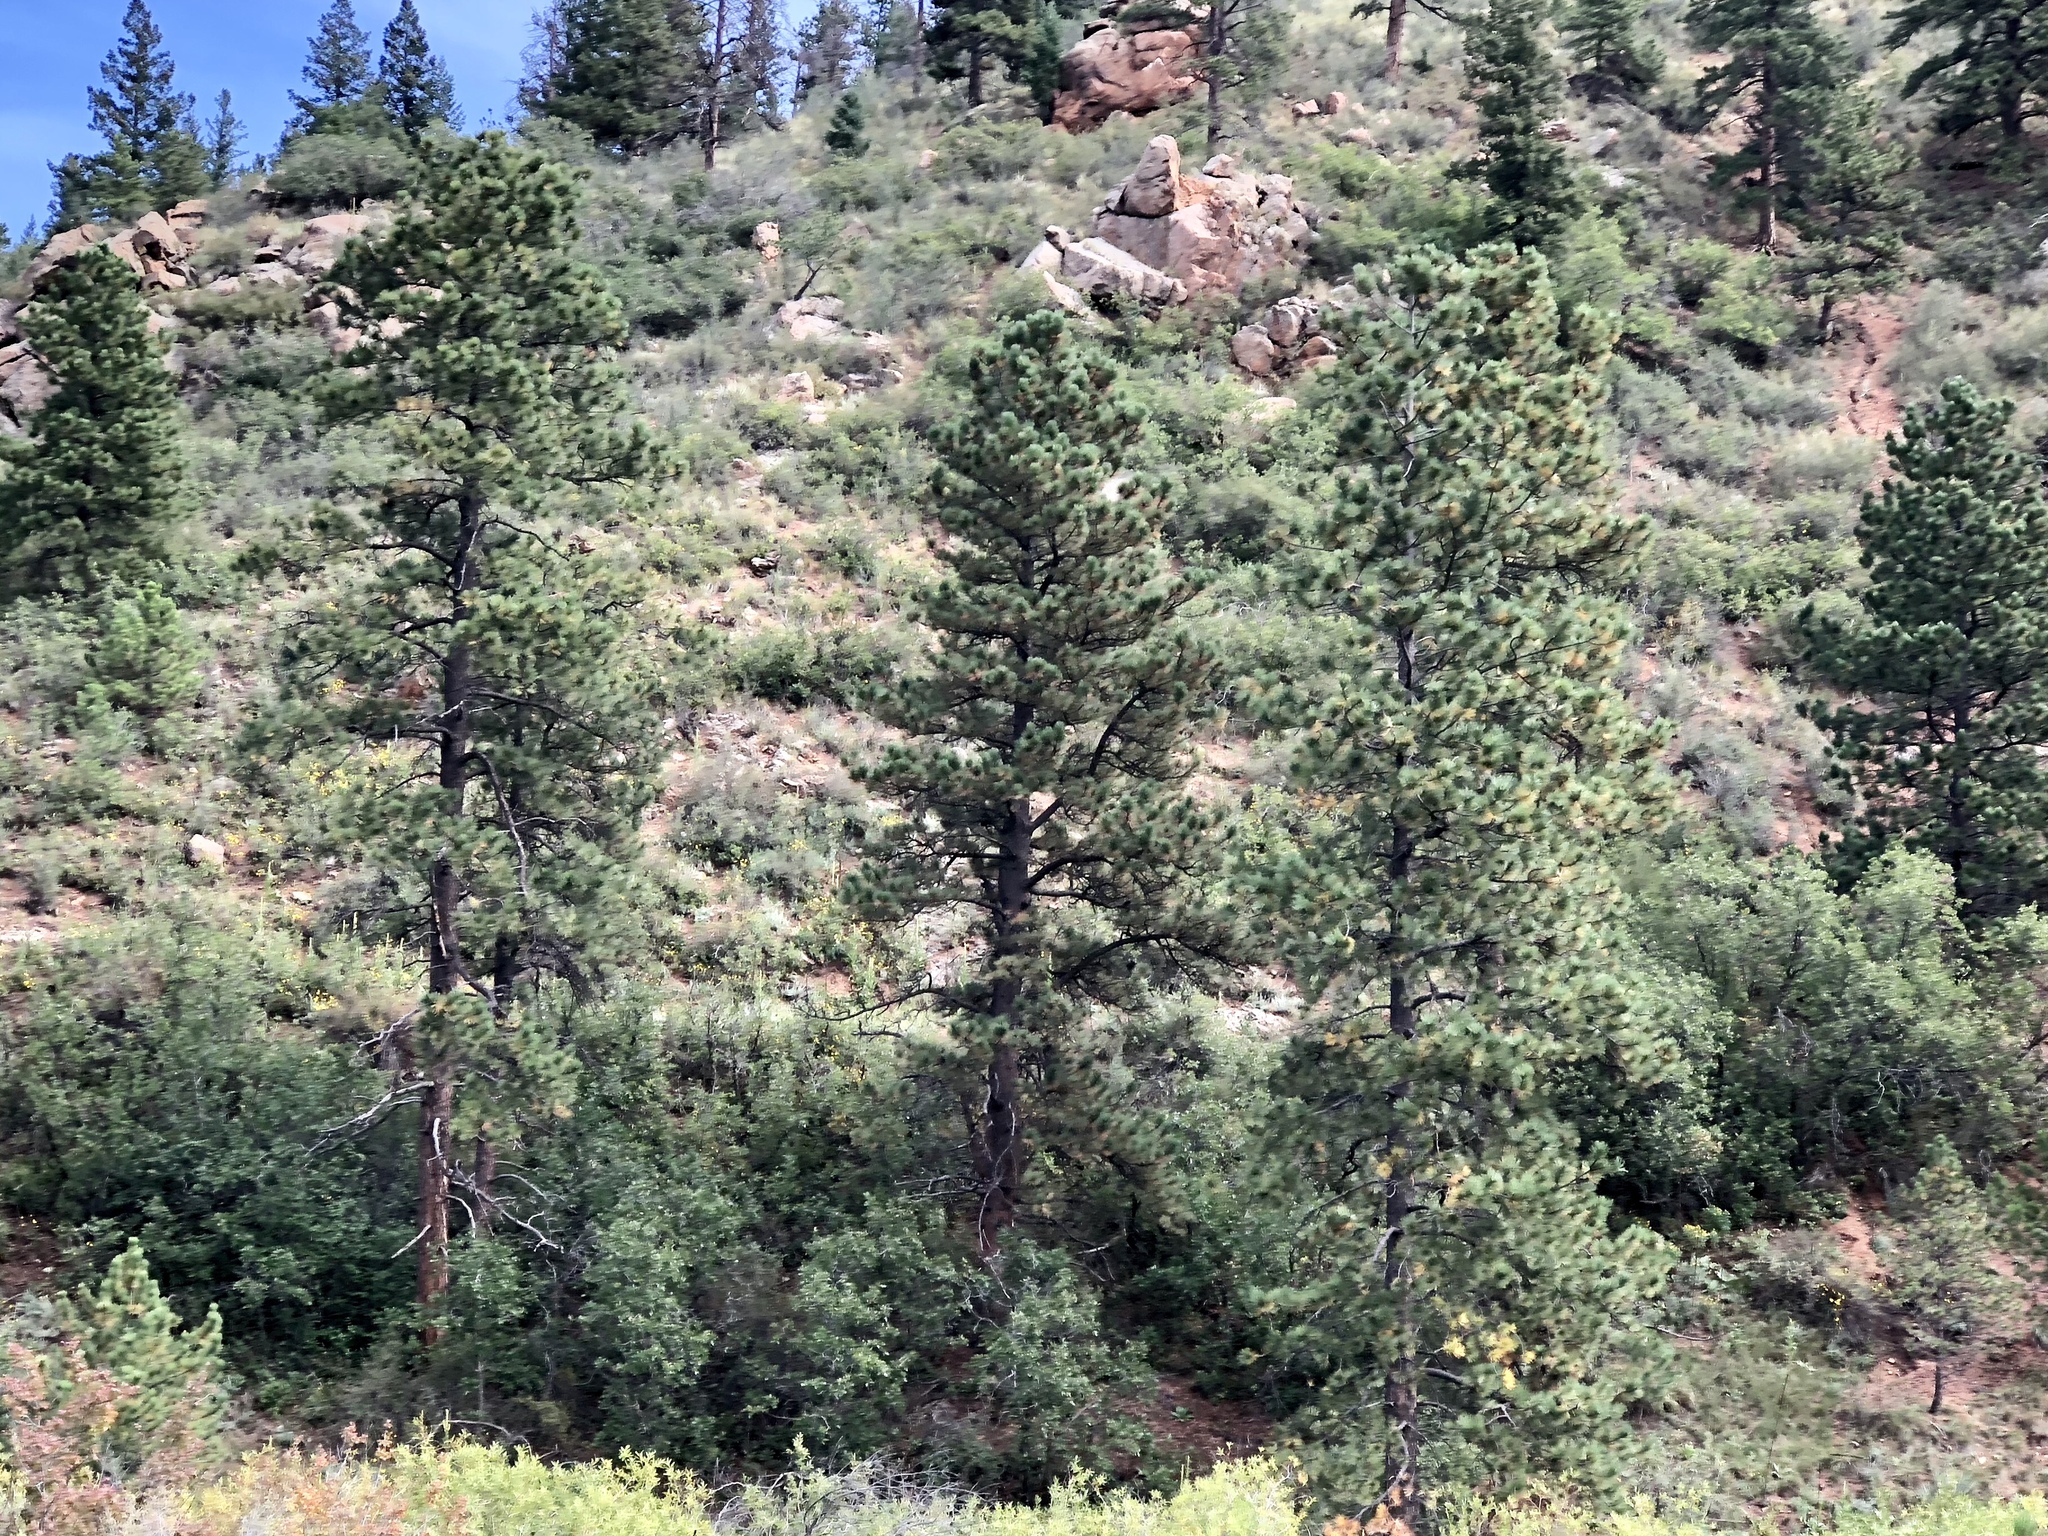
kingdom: Plantae
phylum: Tracheophyta
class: Pinopsida
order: Pinales
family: Pinaceae
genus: Pinus
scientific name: Pinus ponderosa
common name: Western yellow-pine
